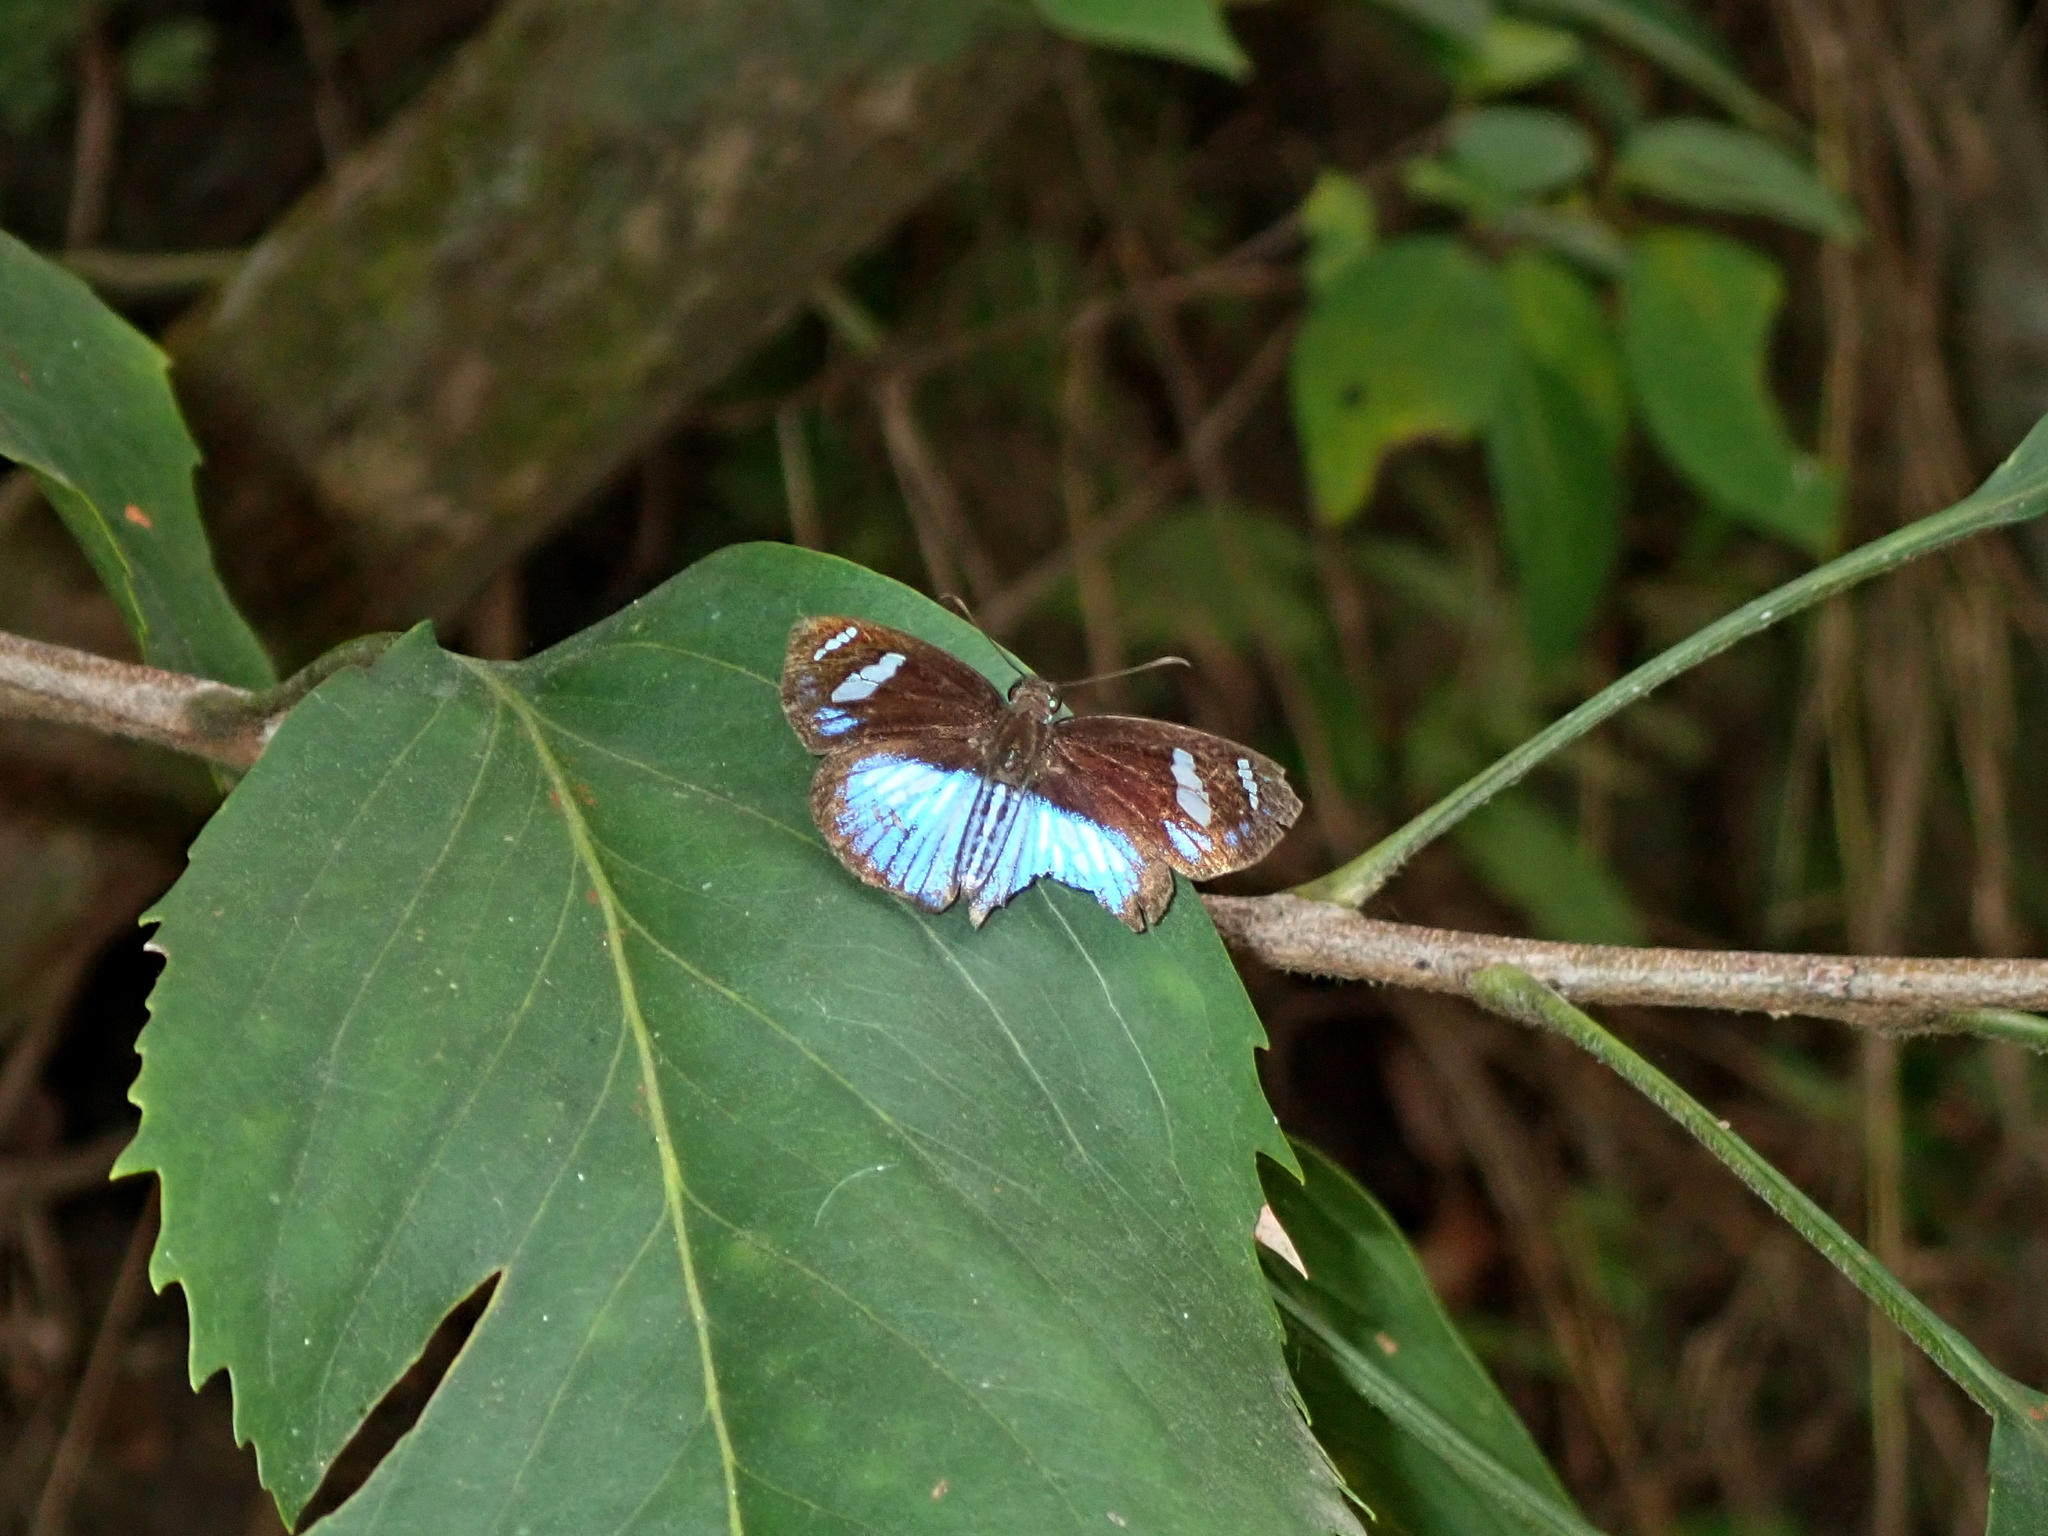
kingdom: Animalia
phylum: Arthropoda
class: Insecta
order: Lepidoptera
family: Hesperiidae
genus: Pythonides
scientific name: Pythonides jovianus
